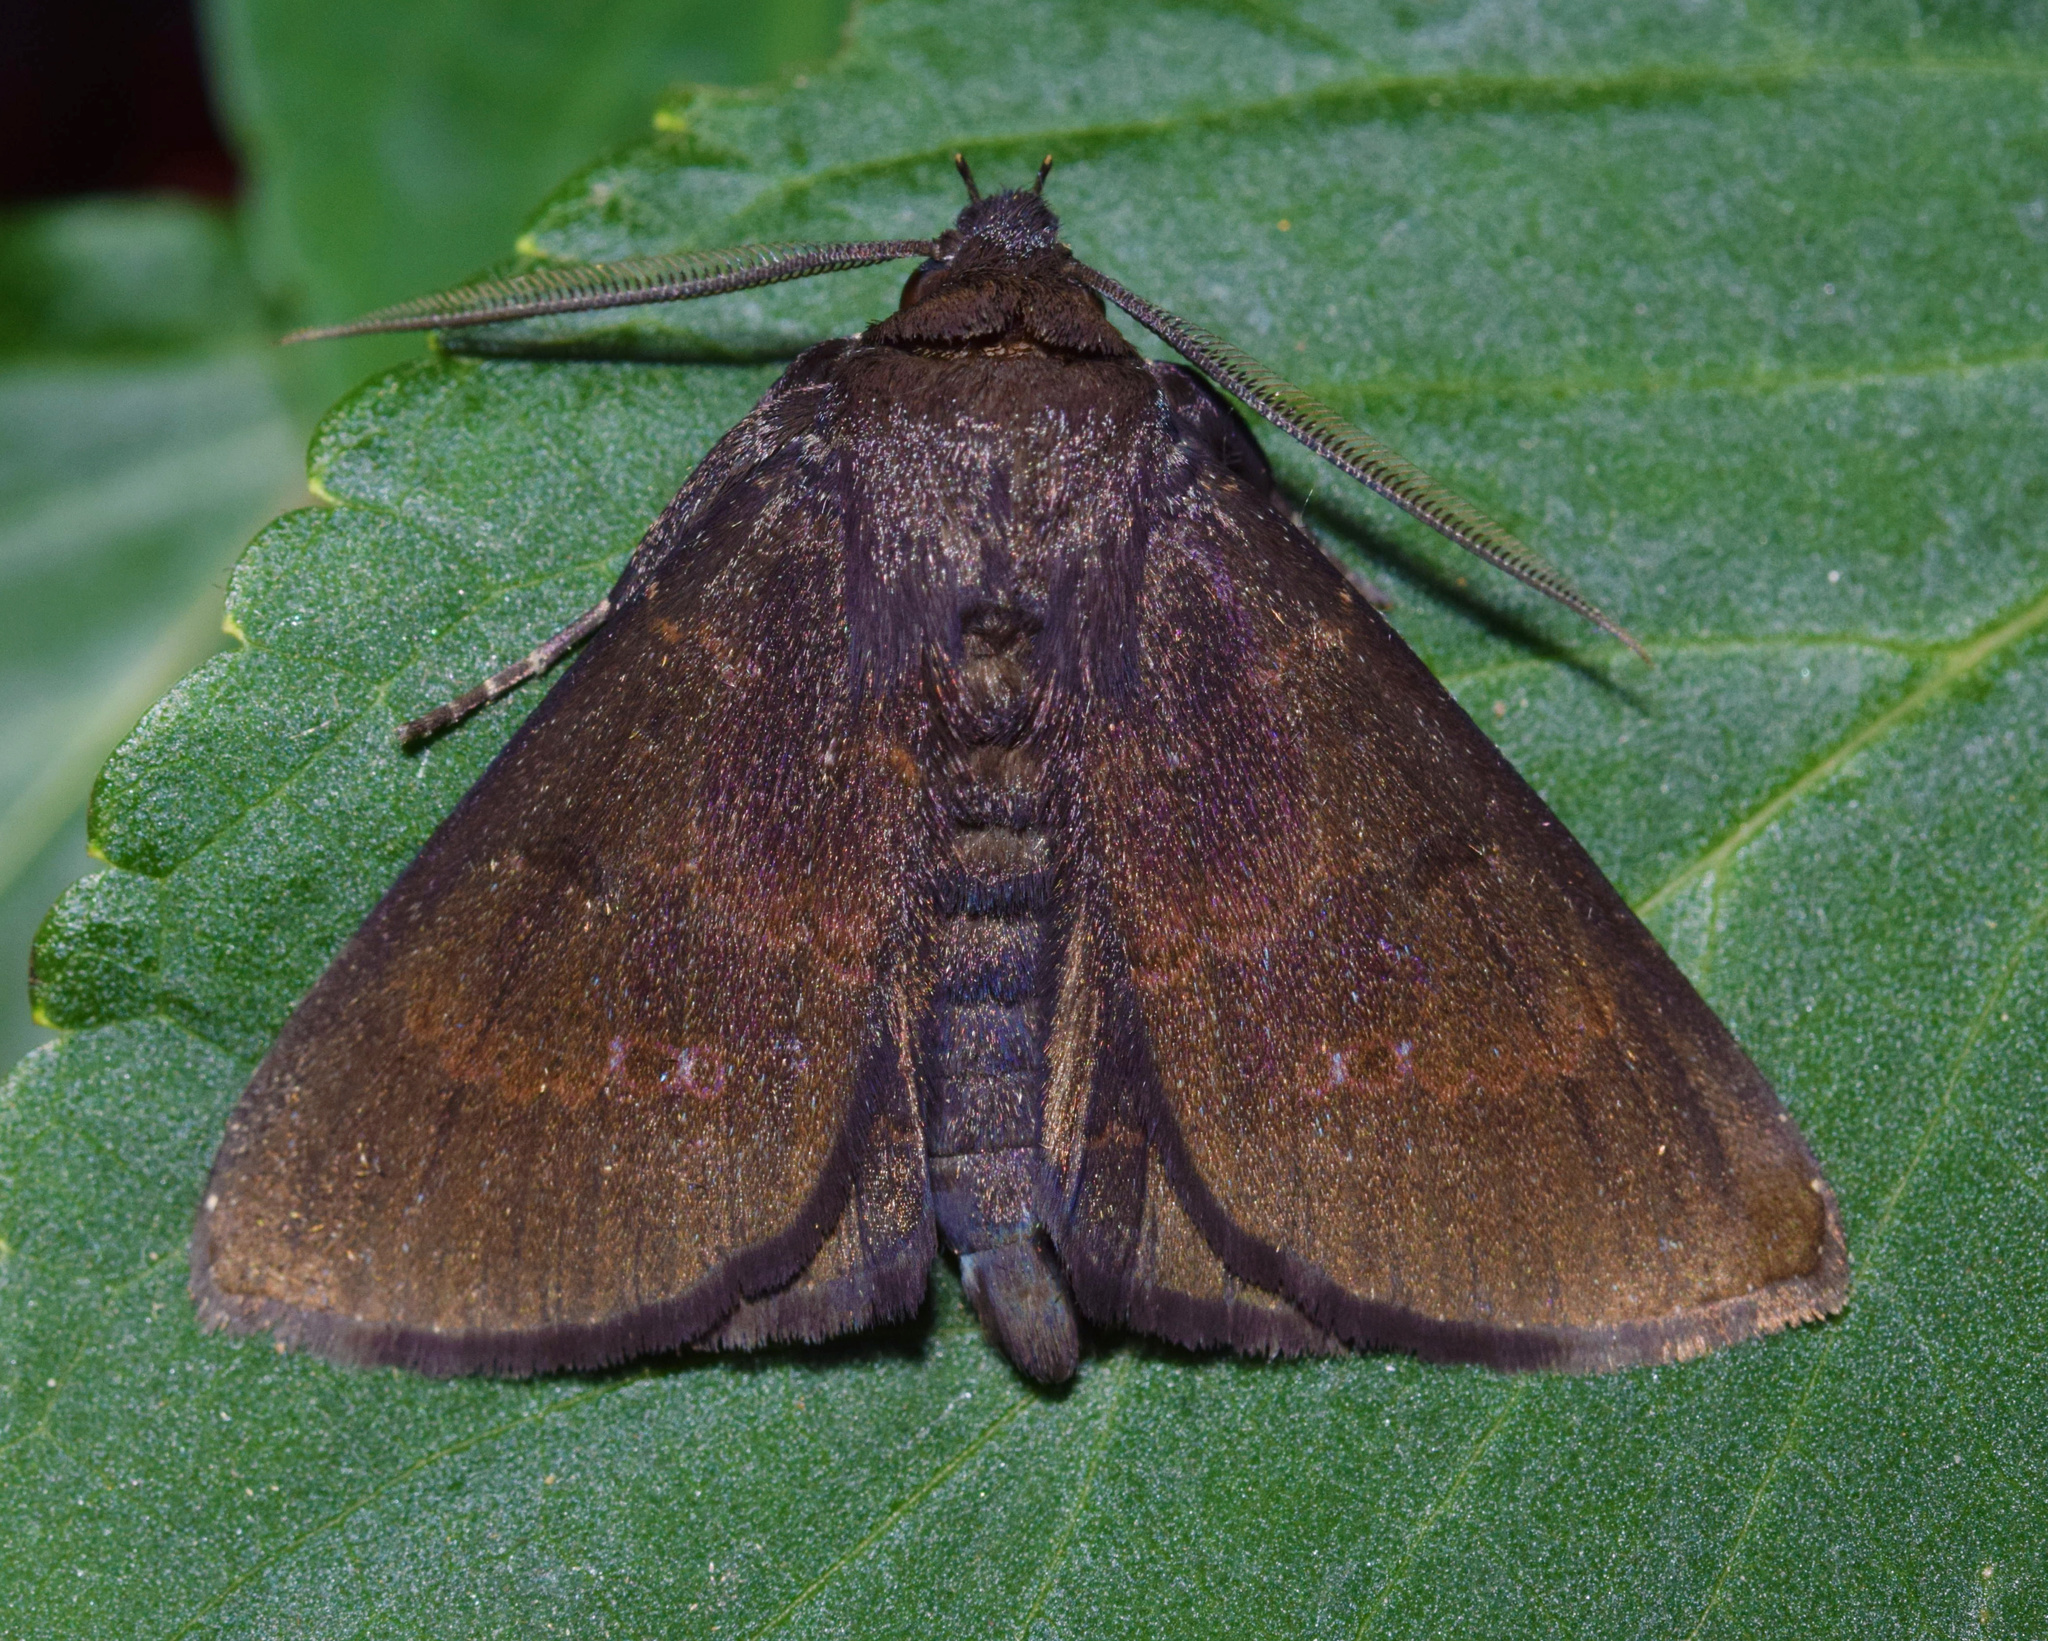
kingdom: Animalia
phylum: Arthropoda
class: Insecta
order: Lepidoptera
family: Erebidae
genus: Platyja
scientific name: Platyja vacillans
